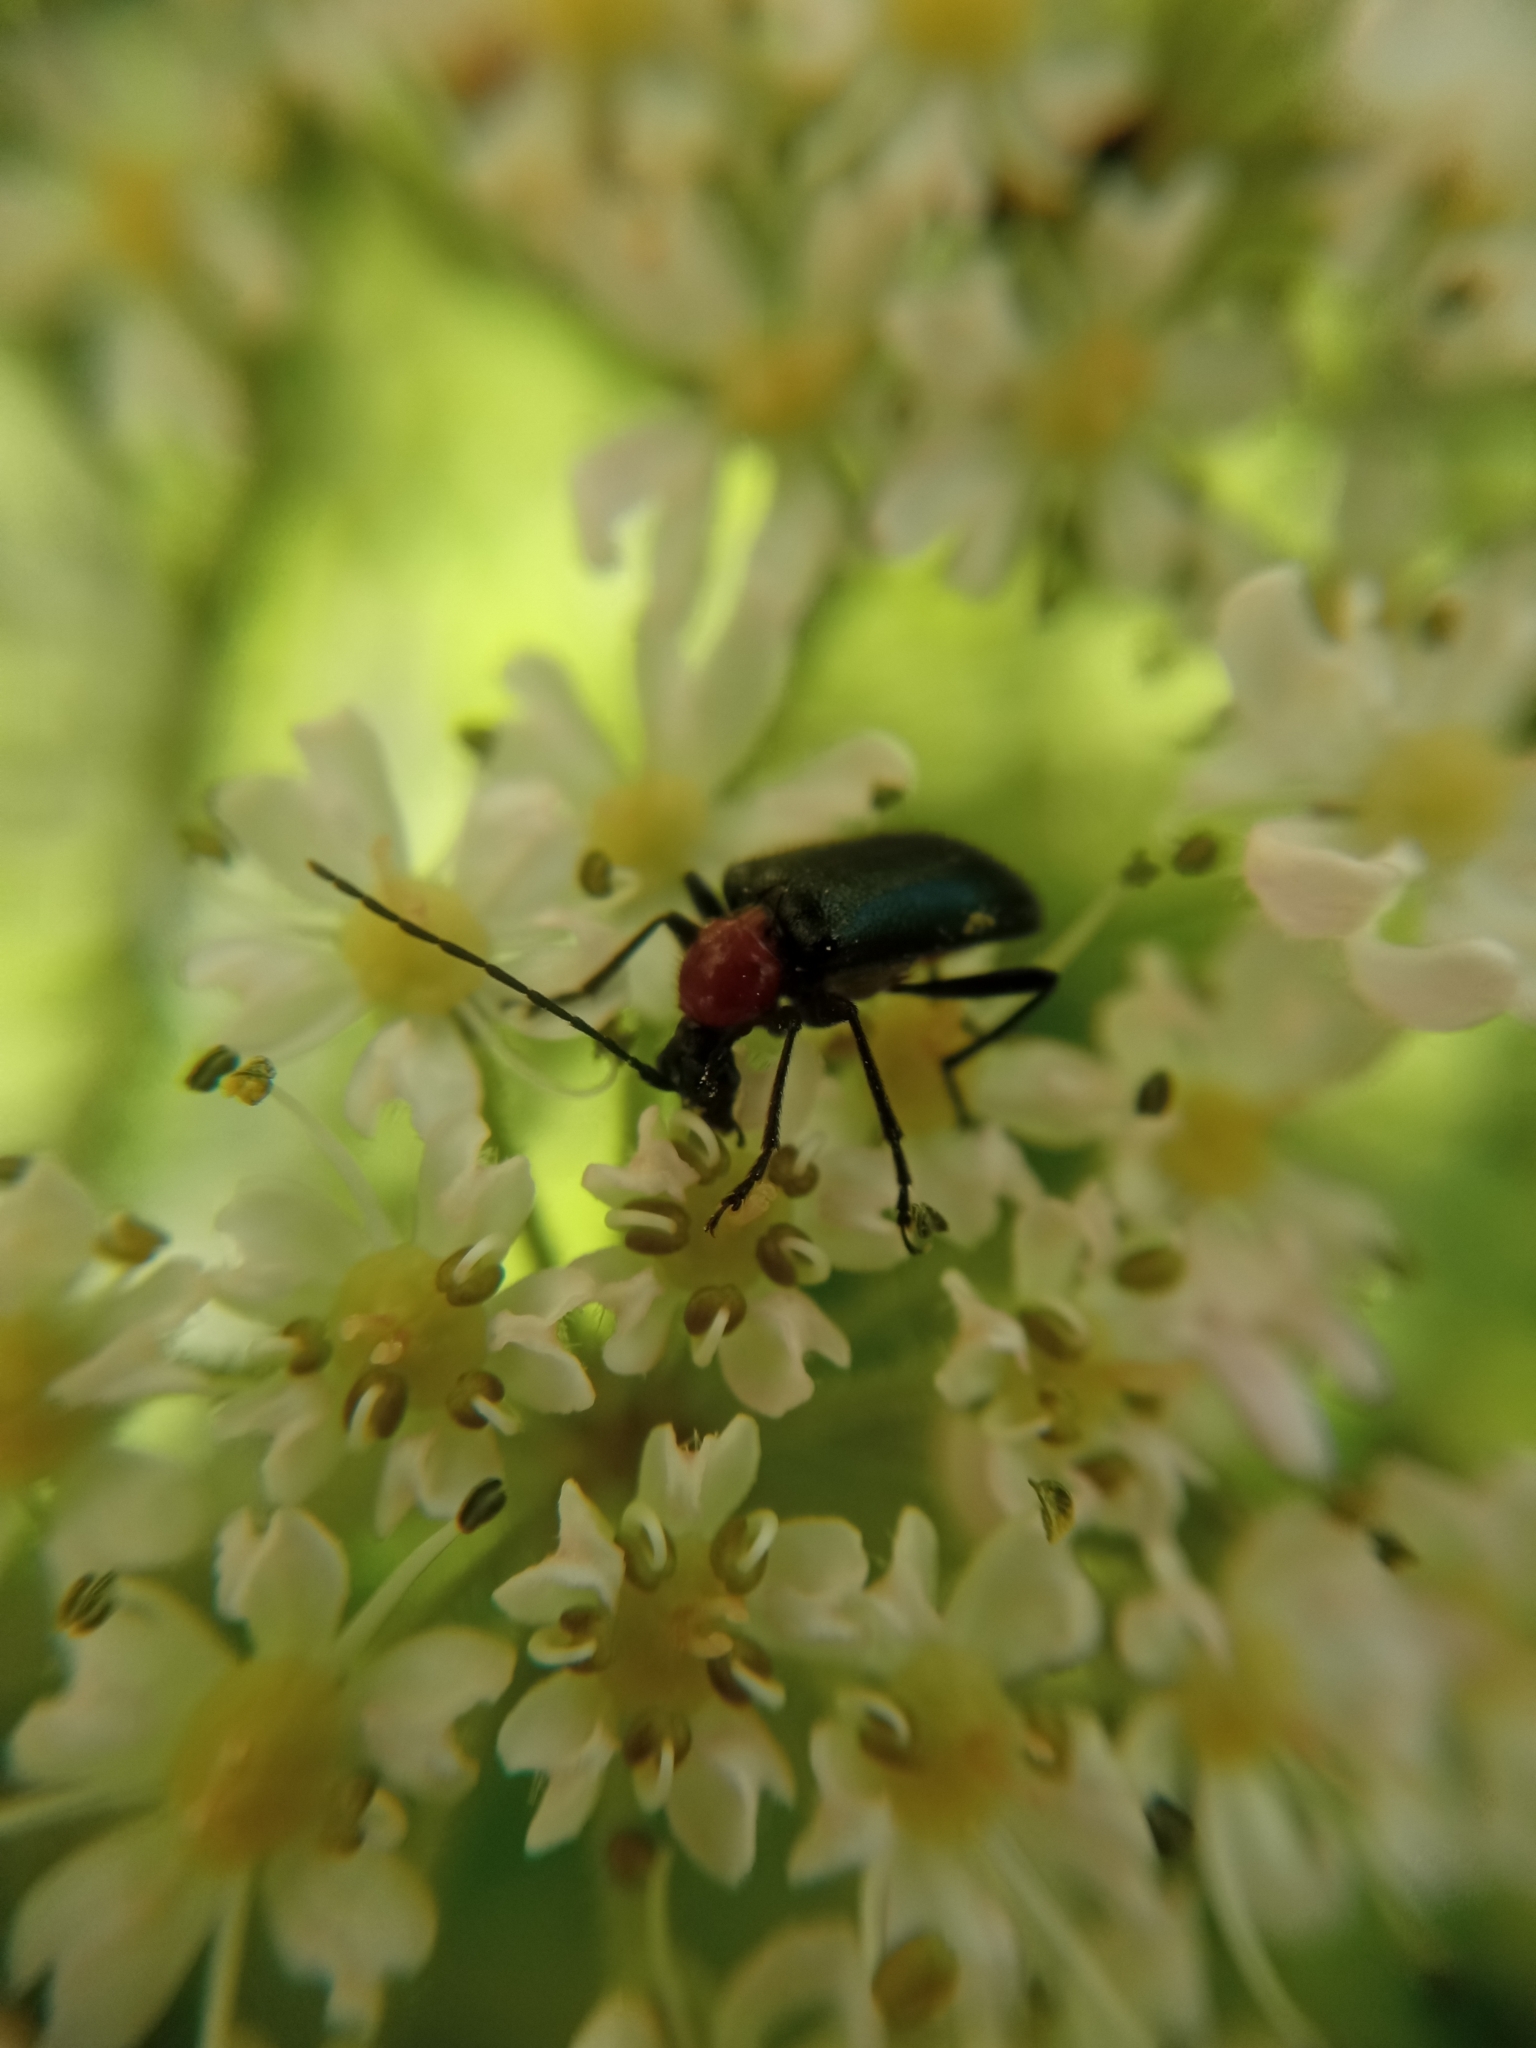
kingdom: Animalia
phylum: Arthropoda
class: Insecta
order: Coleoptera
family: Cerambycidae
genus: Dinoptera
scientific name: Dinoptera collaris
